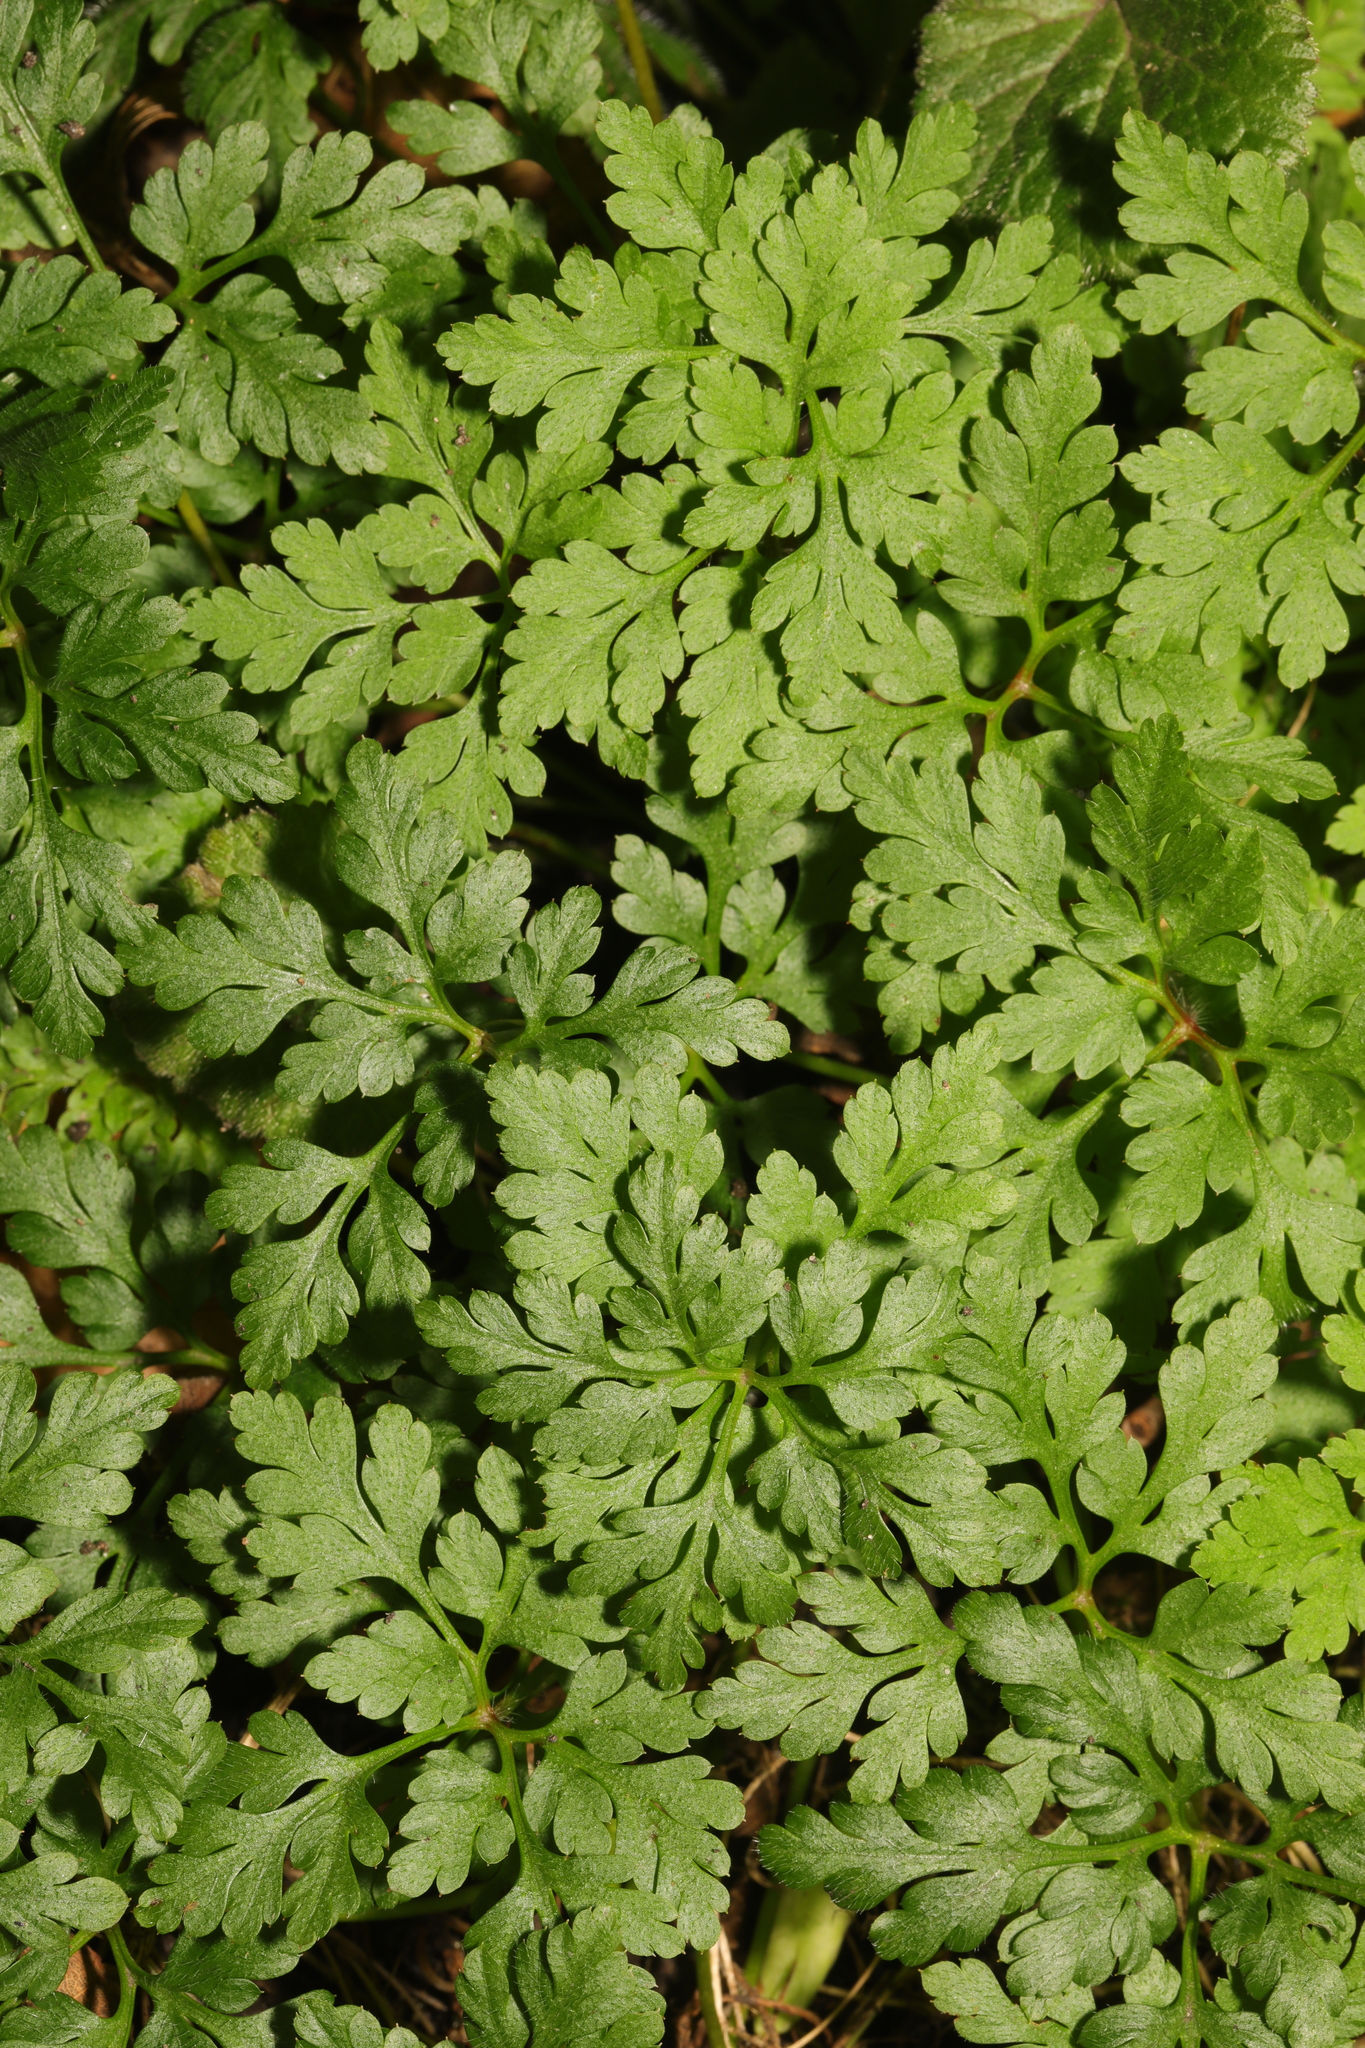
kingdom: Plantae
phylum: Tracheophyta
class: Magnoliopsida
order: Geraniales
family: Geraniaceae
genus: Geranium
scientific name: Geranium robertianum
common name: Herb-robert
